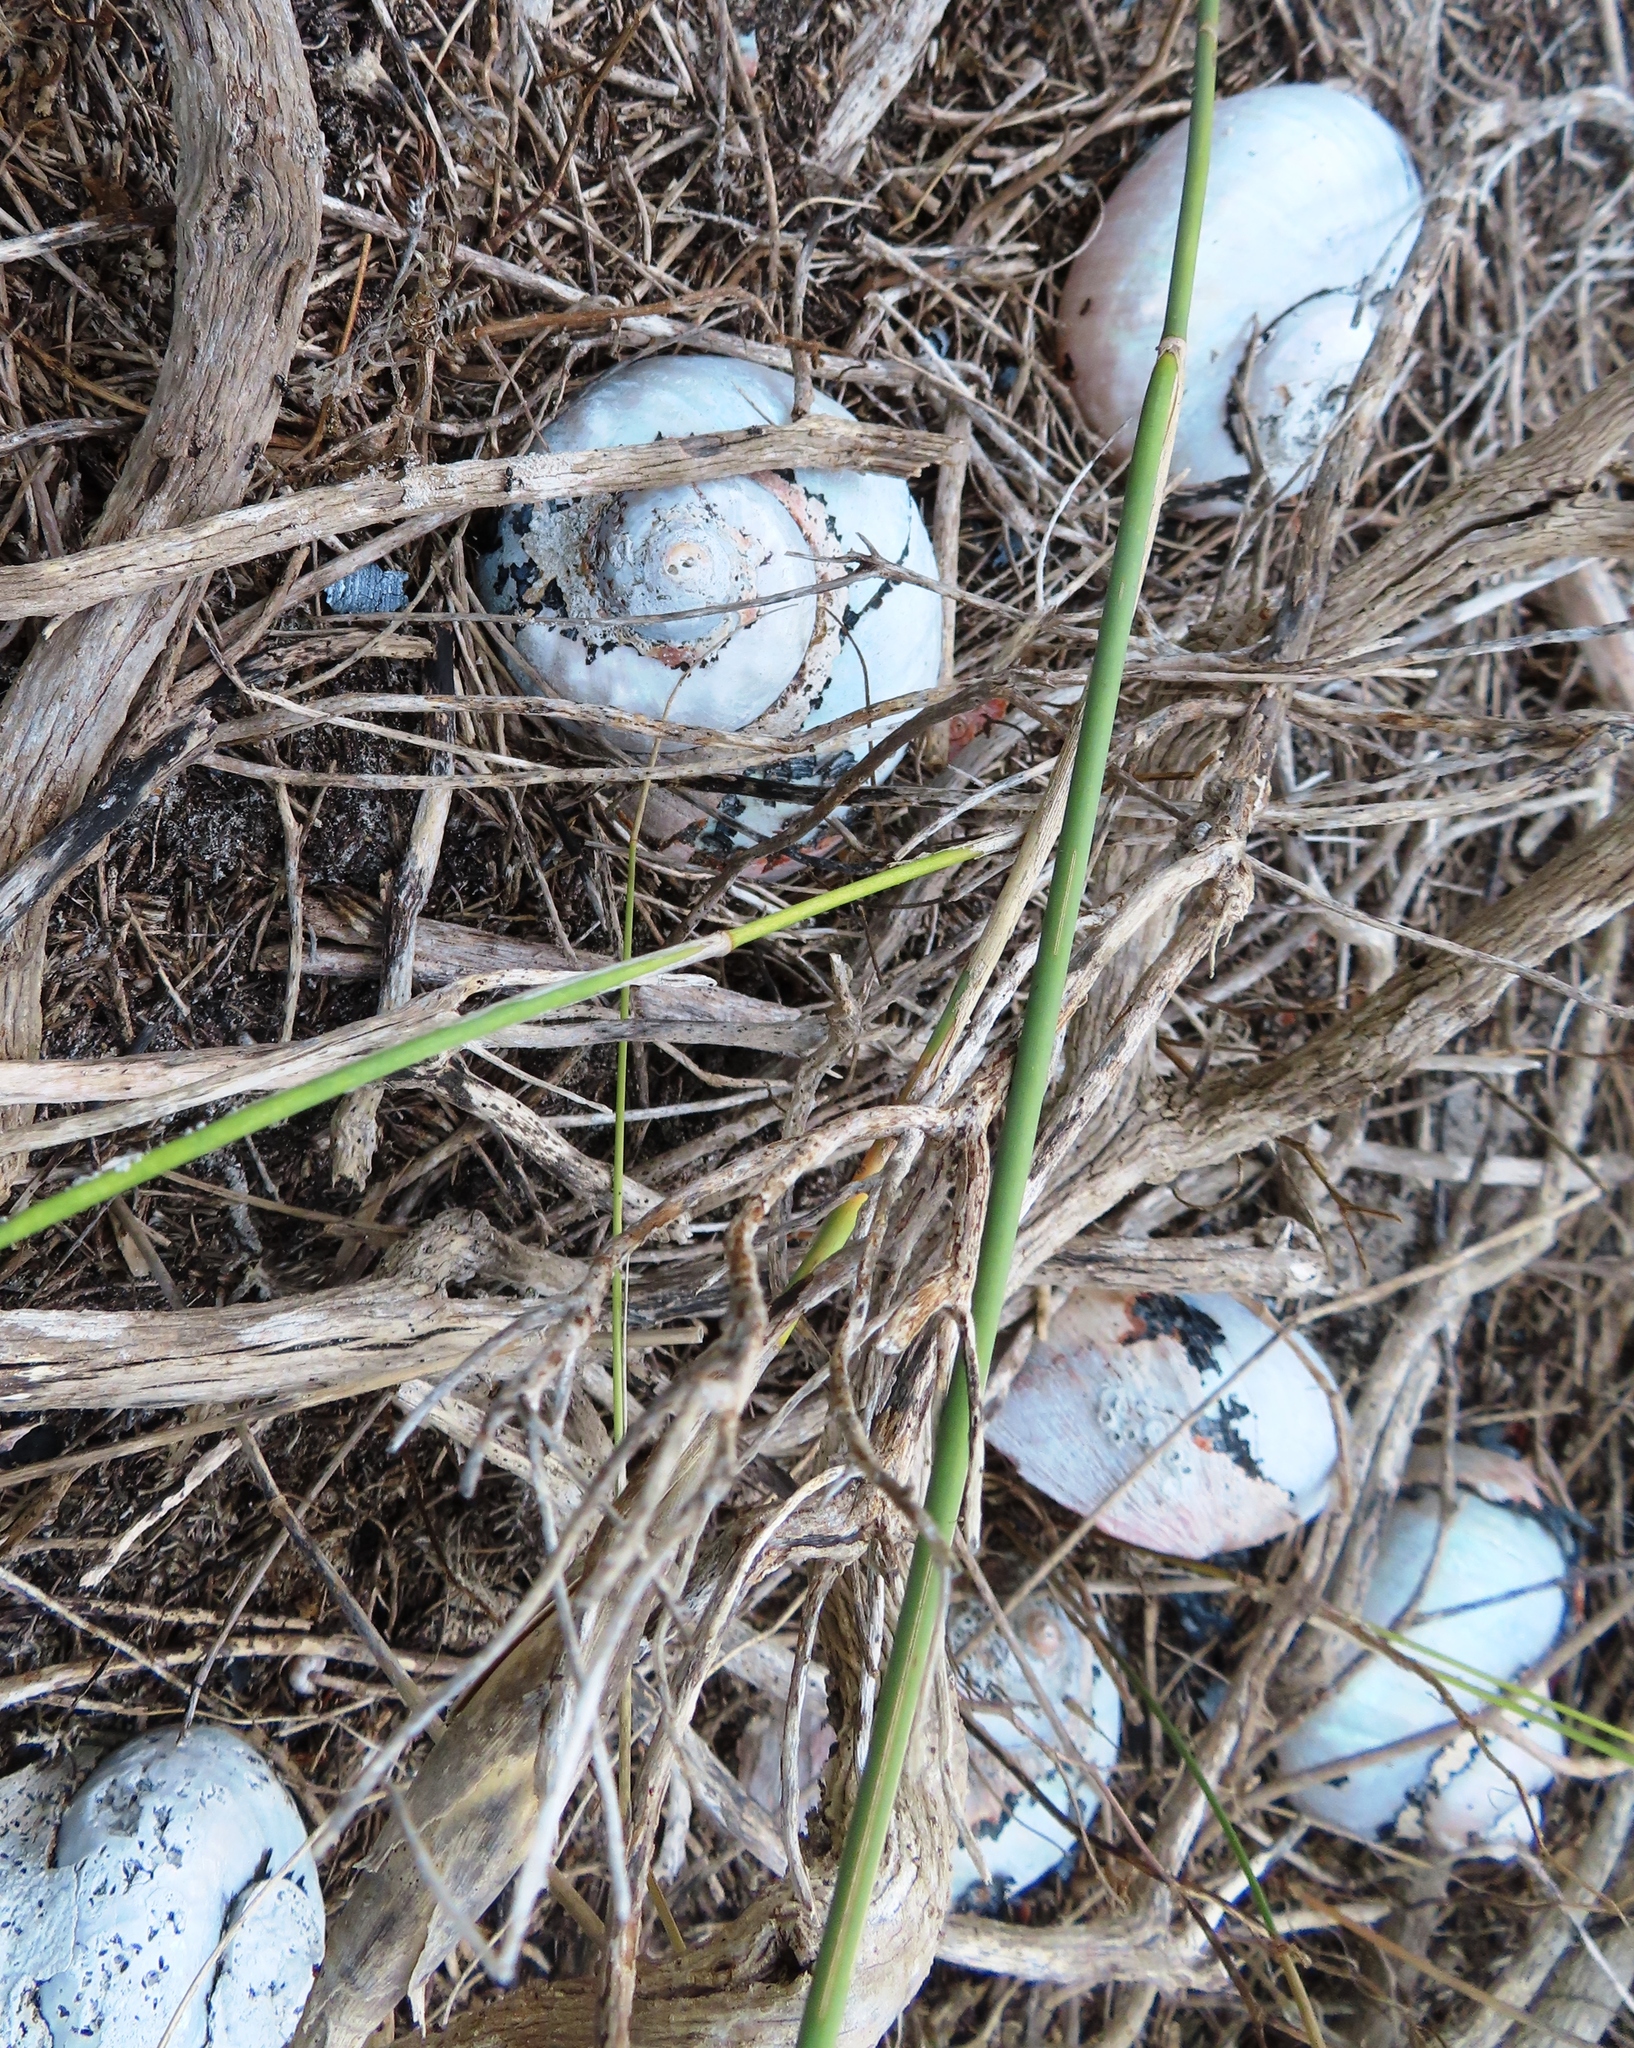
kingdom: Animalia
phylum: Mollusca
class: Gastropoda
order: Trochida
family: Turbinidae
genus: Turbo
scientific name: Turbo sarmaticus
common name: South african turban
